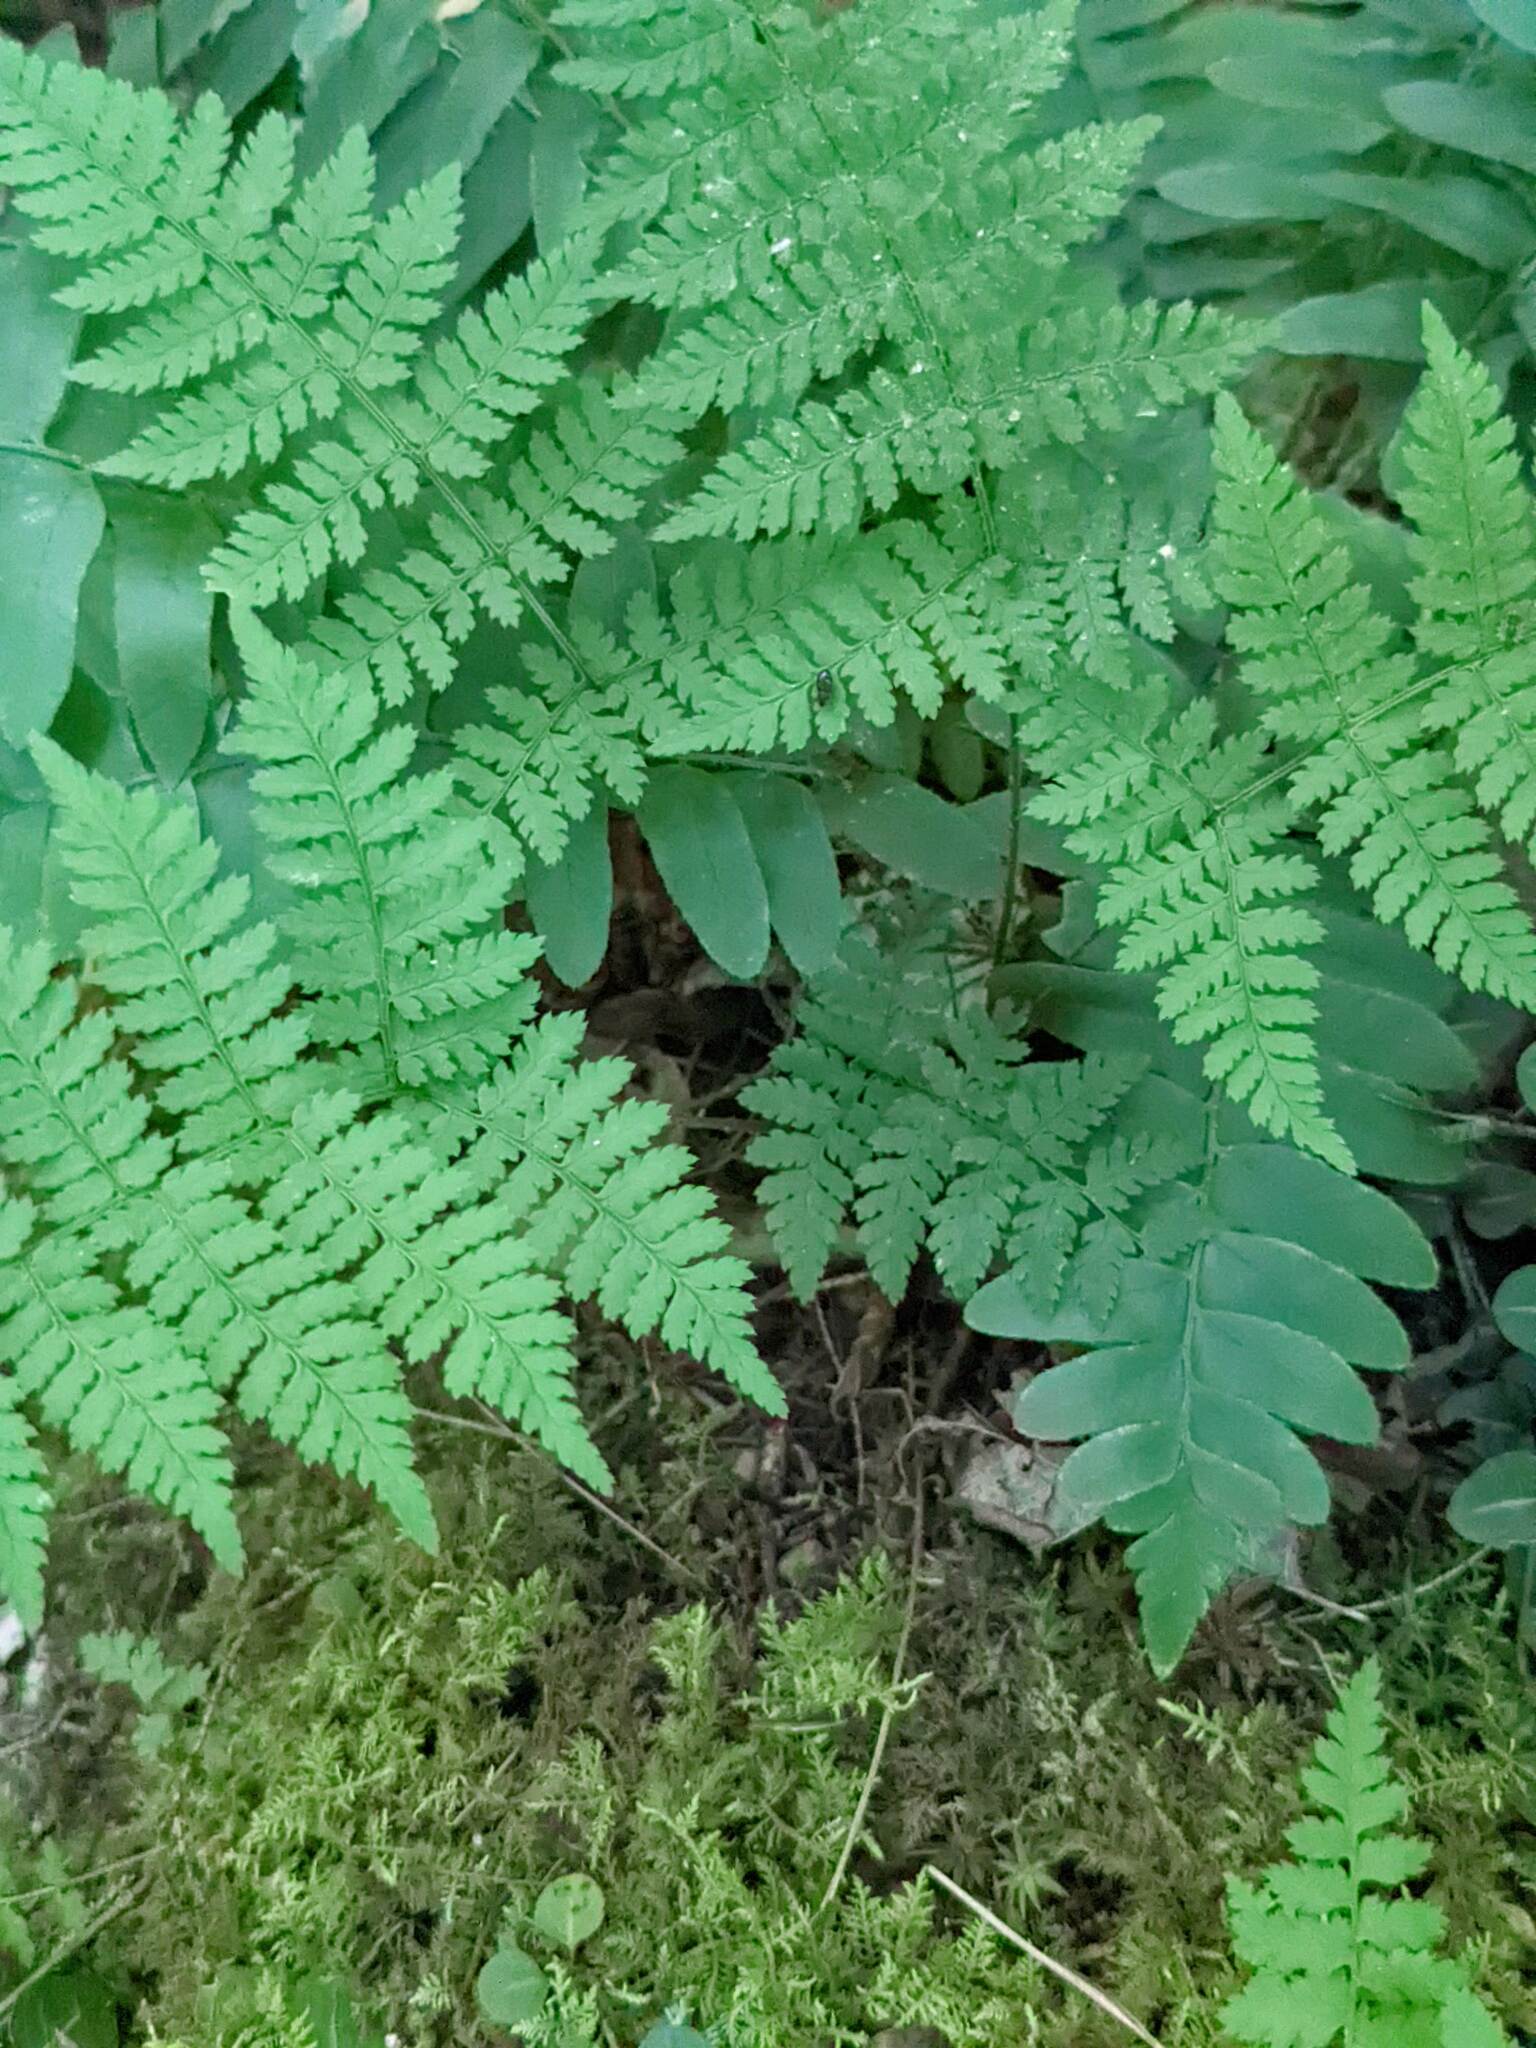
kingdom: Plantae
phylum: Tracheophyta
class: Polypodiopsida
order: Polypodiales
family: Dryopteridaceae
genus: Dryopteris
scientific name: Dryopteris intermedia
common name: Evergreen wood fern
